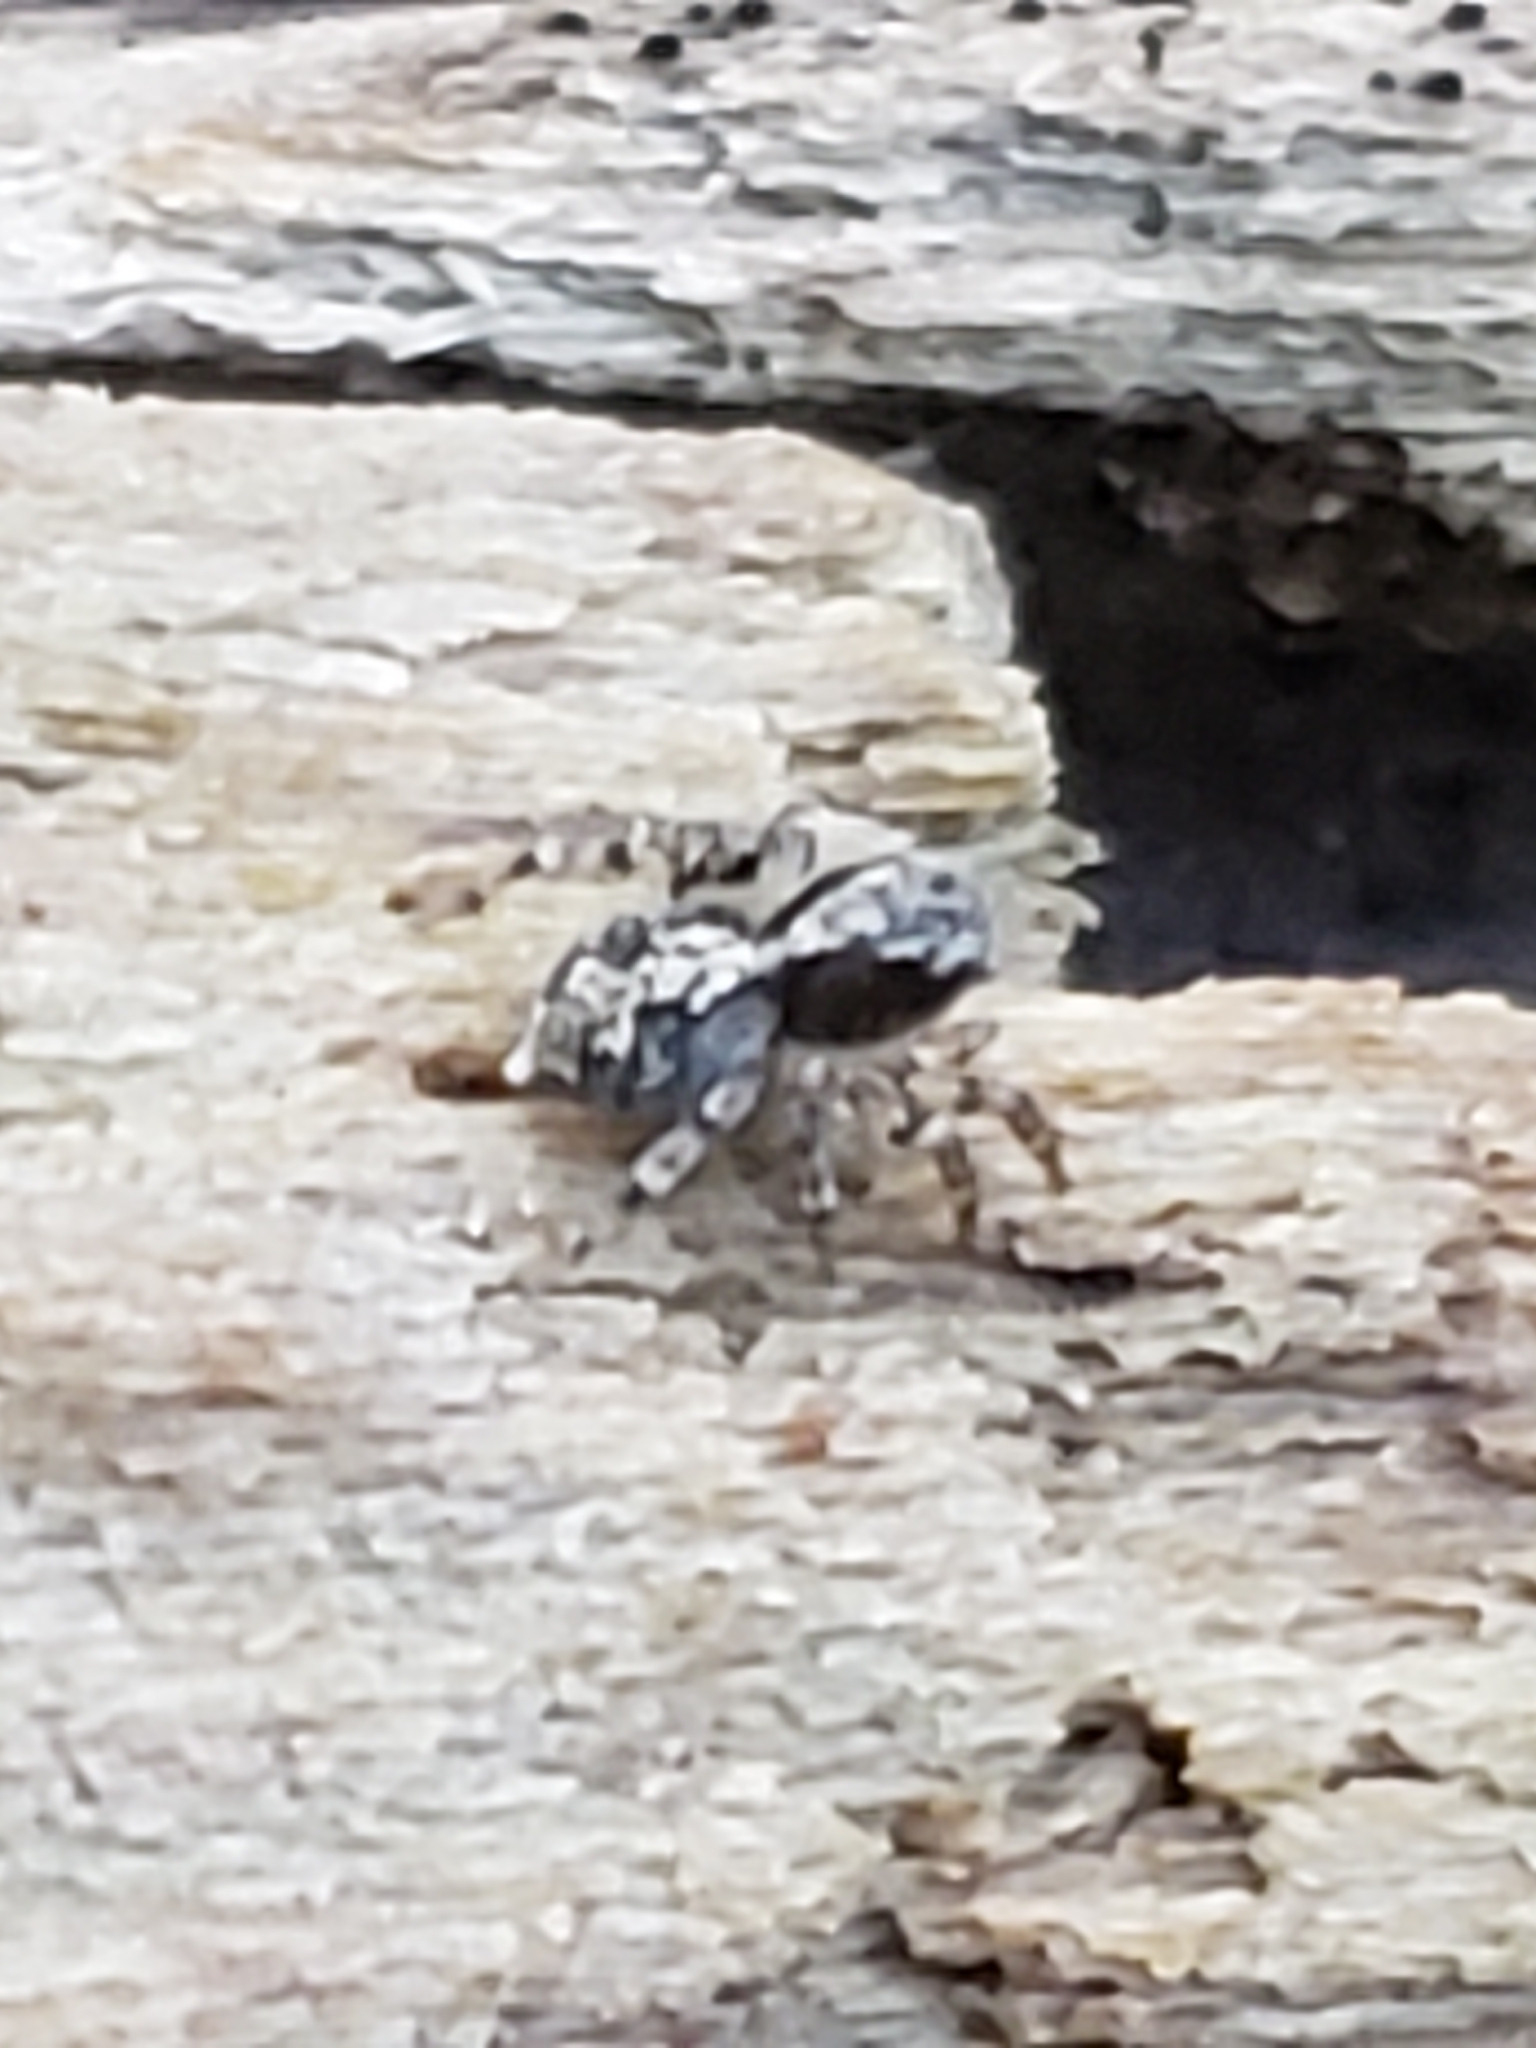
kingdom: Animalia
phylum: Arthropoda
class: Arachnida
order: Araneae
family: Salticidae
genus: Naphrys
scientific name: Naphrys pulex
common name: Flea jumping spider
